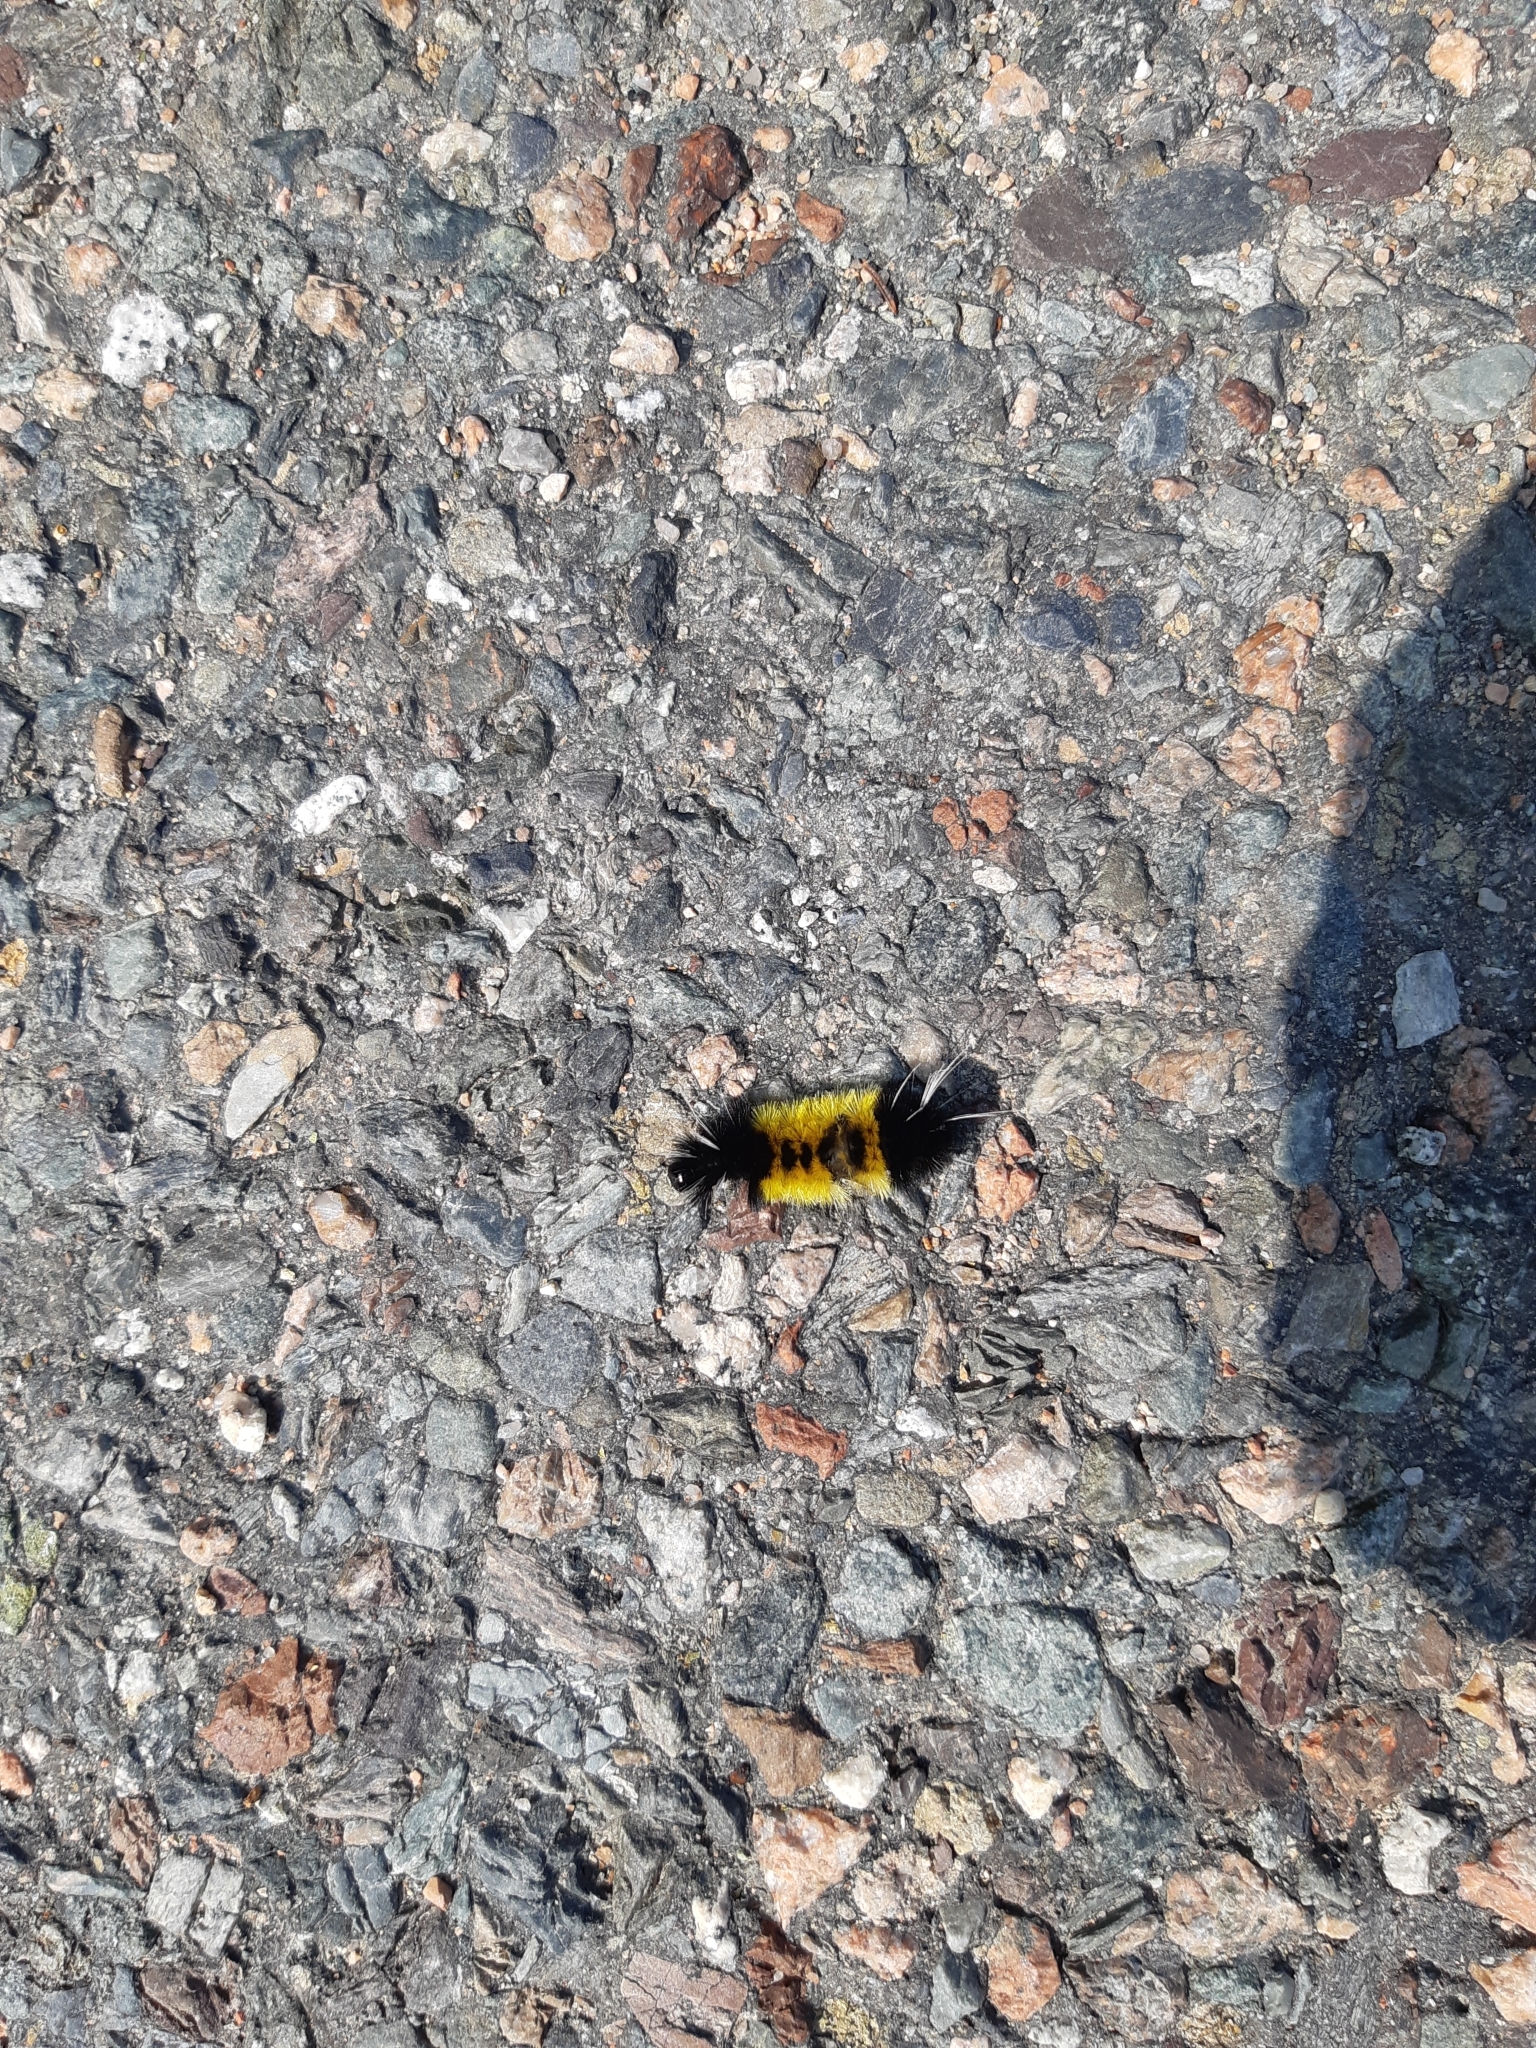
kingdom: Animalia
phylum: Arthropoda
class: Insecta
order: Lepidoptera
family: Erebidae
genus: Lophocampa
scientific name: Lophocampa maculata
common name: Spotted tussock moth
